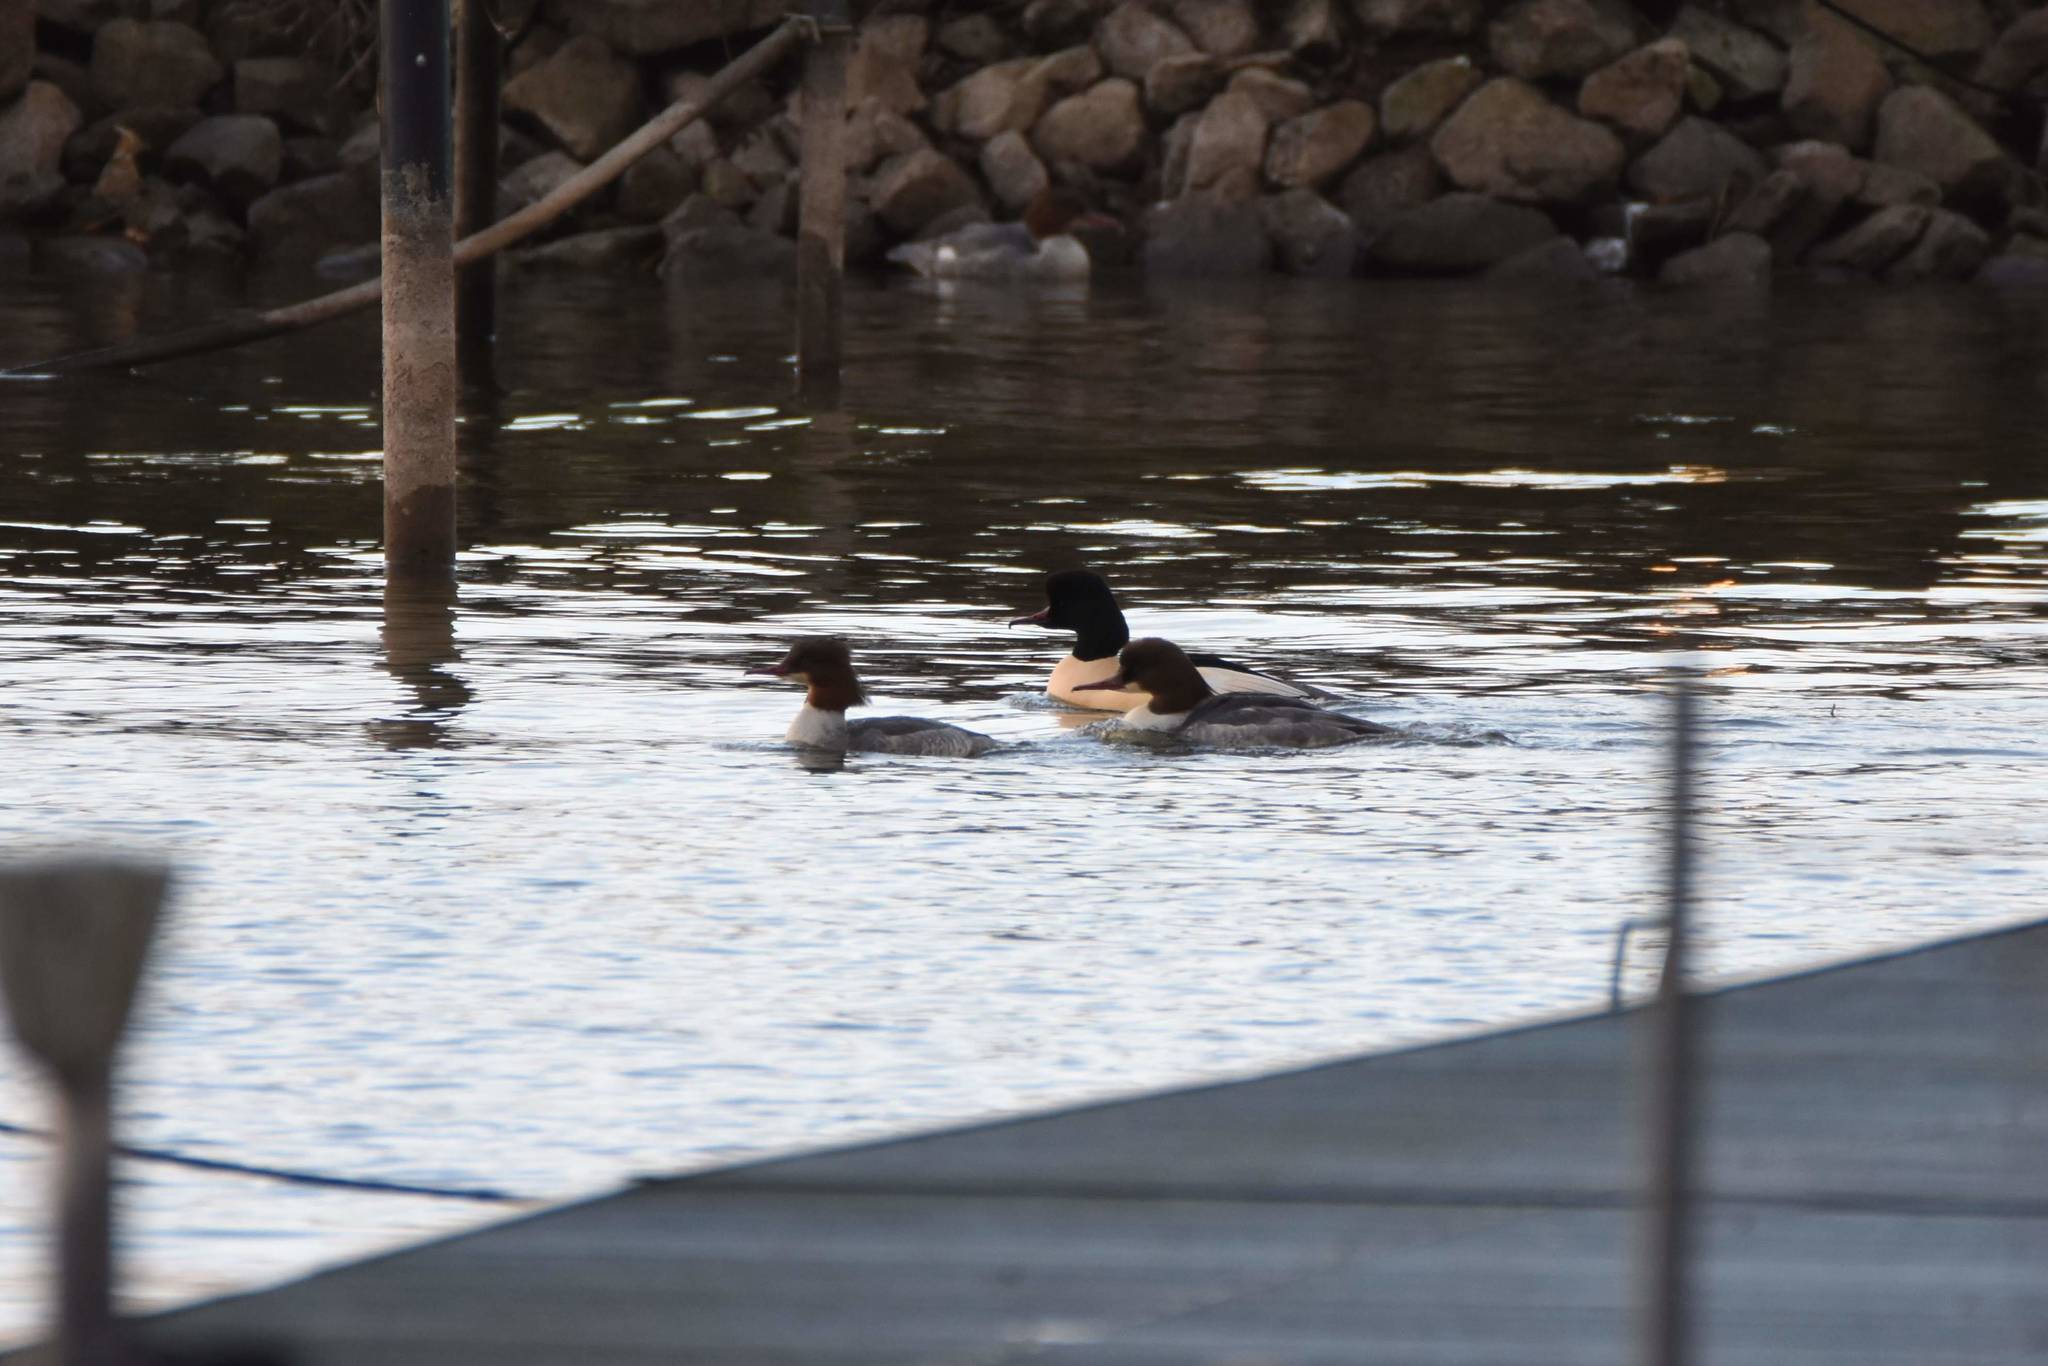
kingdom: Animalia
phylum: Chordata
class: Aves
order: Anseriformes
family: Anatidae
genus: Mergus
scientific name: Mergus merganser
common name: Common merganser
